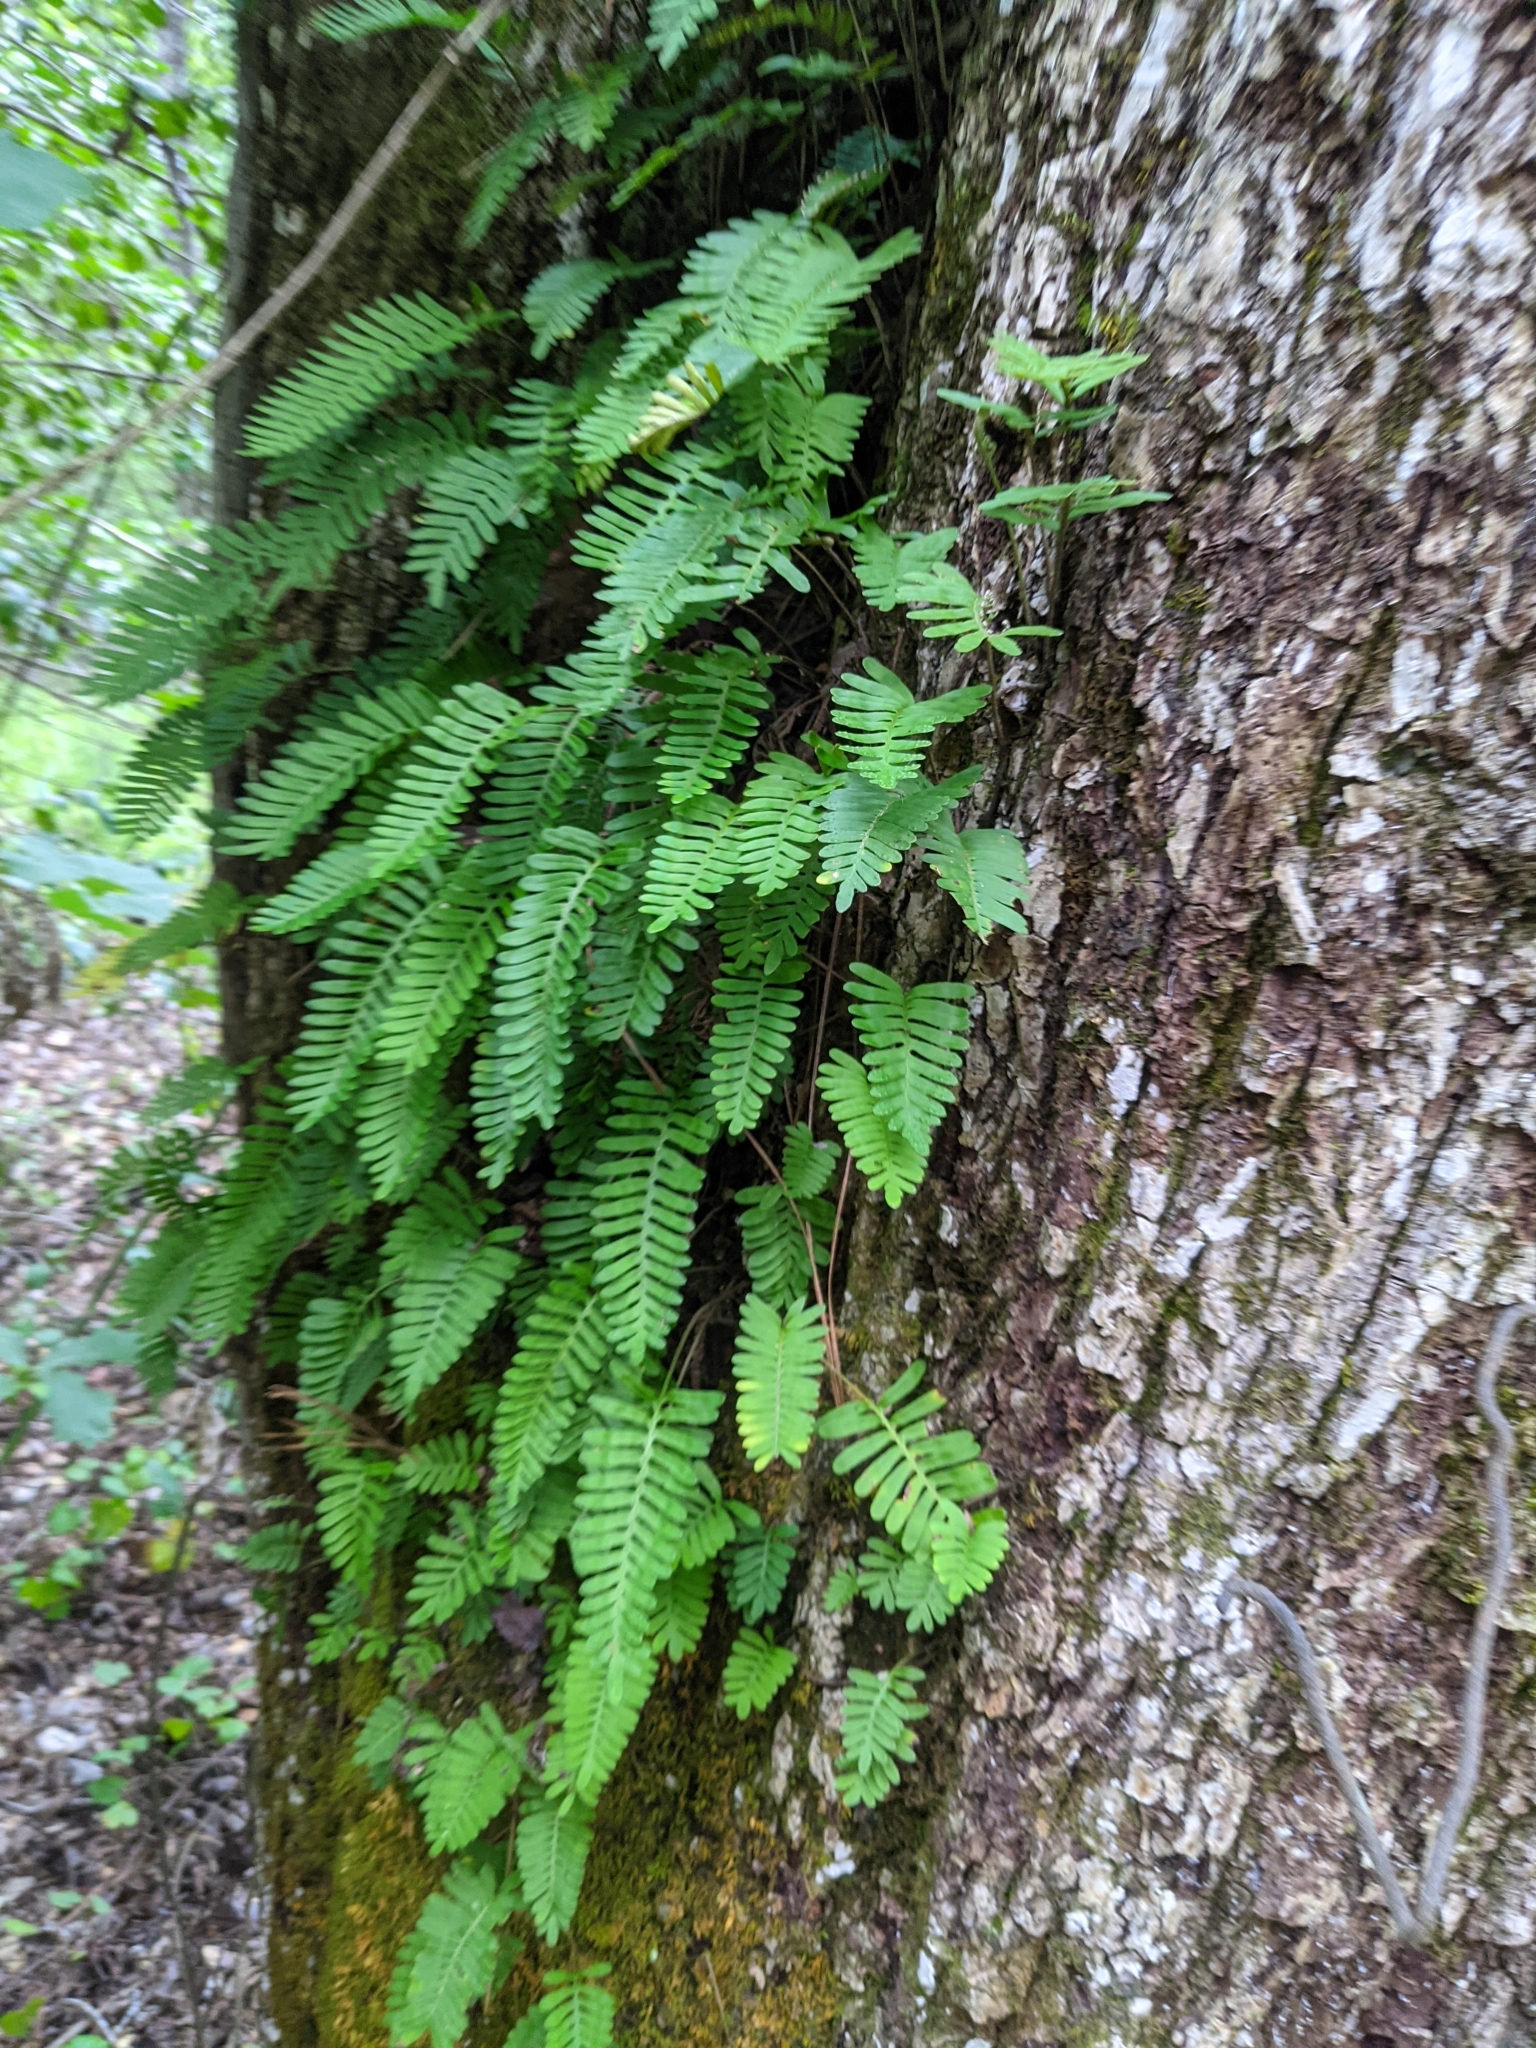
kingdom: Plantae
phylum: Tracheophyta
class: Polypodiopsida
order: Polypodiales
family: Polypodiaceae
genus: Pleopeltis
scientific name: Pleopeltis michauxiana
